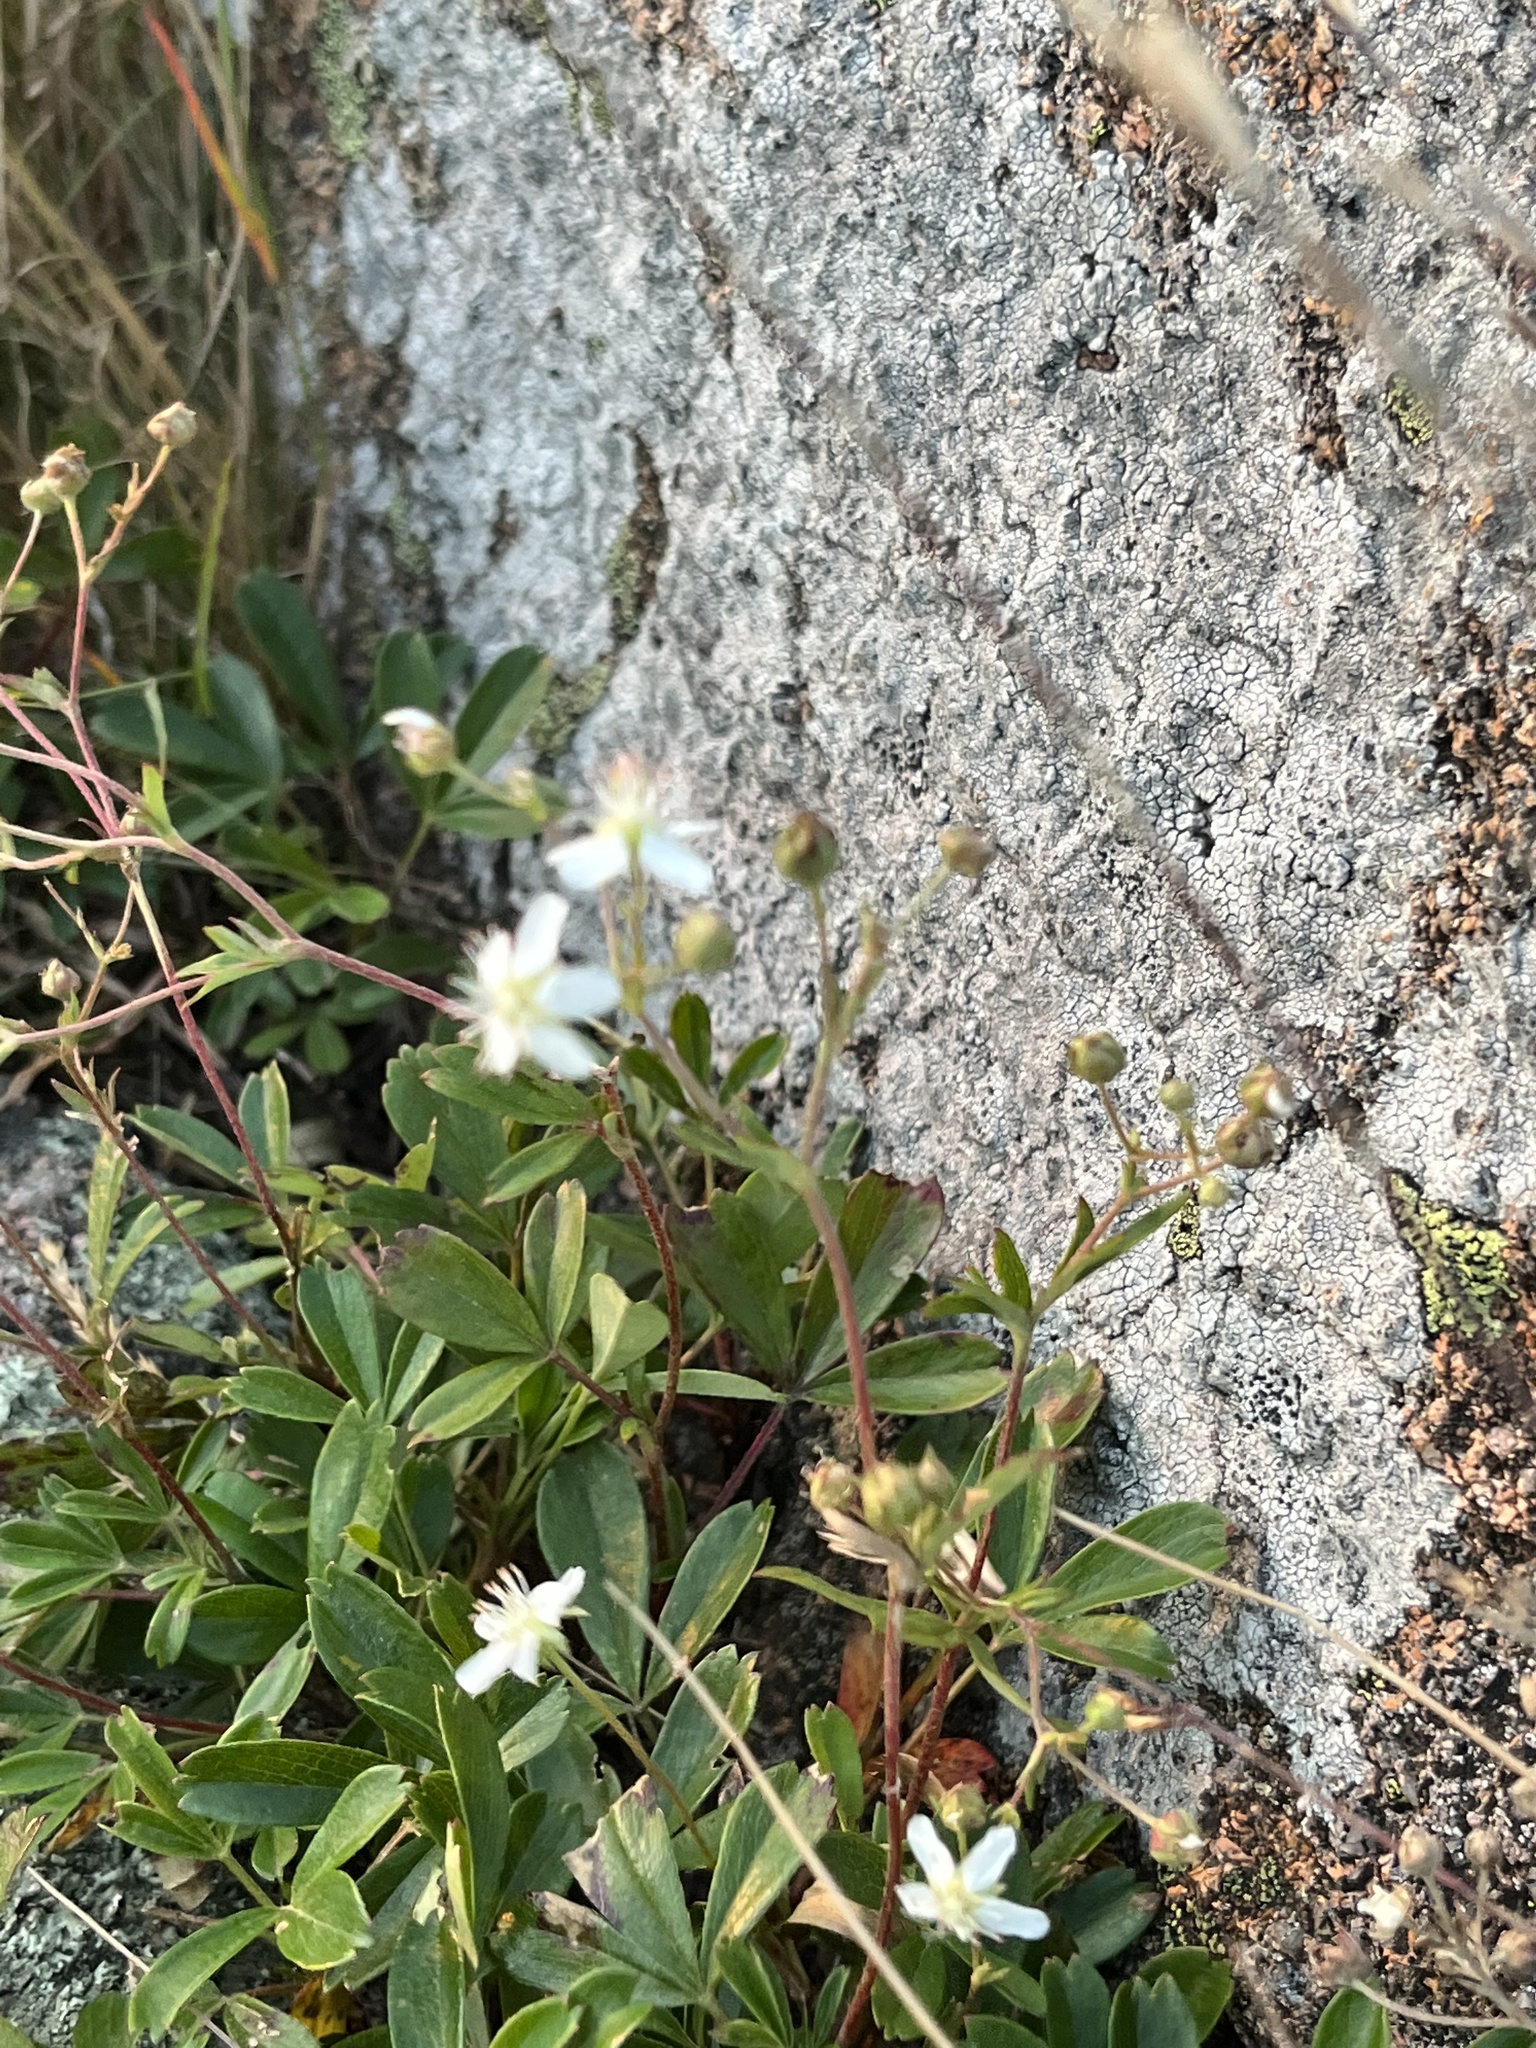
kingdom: Plantae
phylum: Tracheophyta
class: Magnoliopsida
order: Rosales
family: Rosaceae
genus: Sibbaldia
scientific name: Sibbaldia tridentata
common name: Three-toothed cinquefoil
